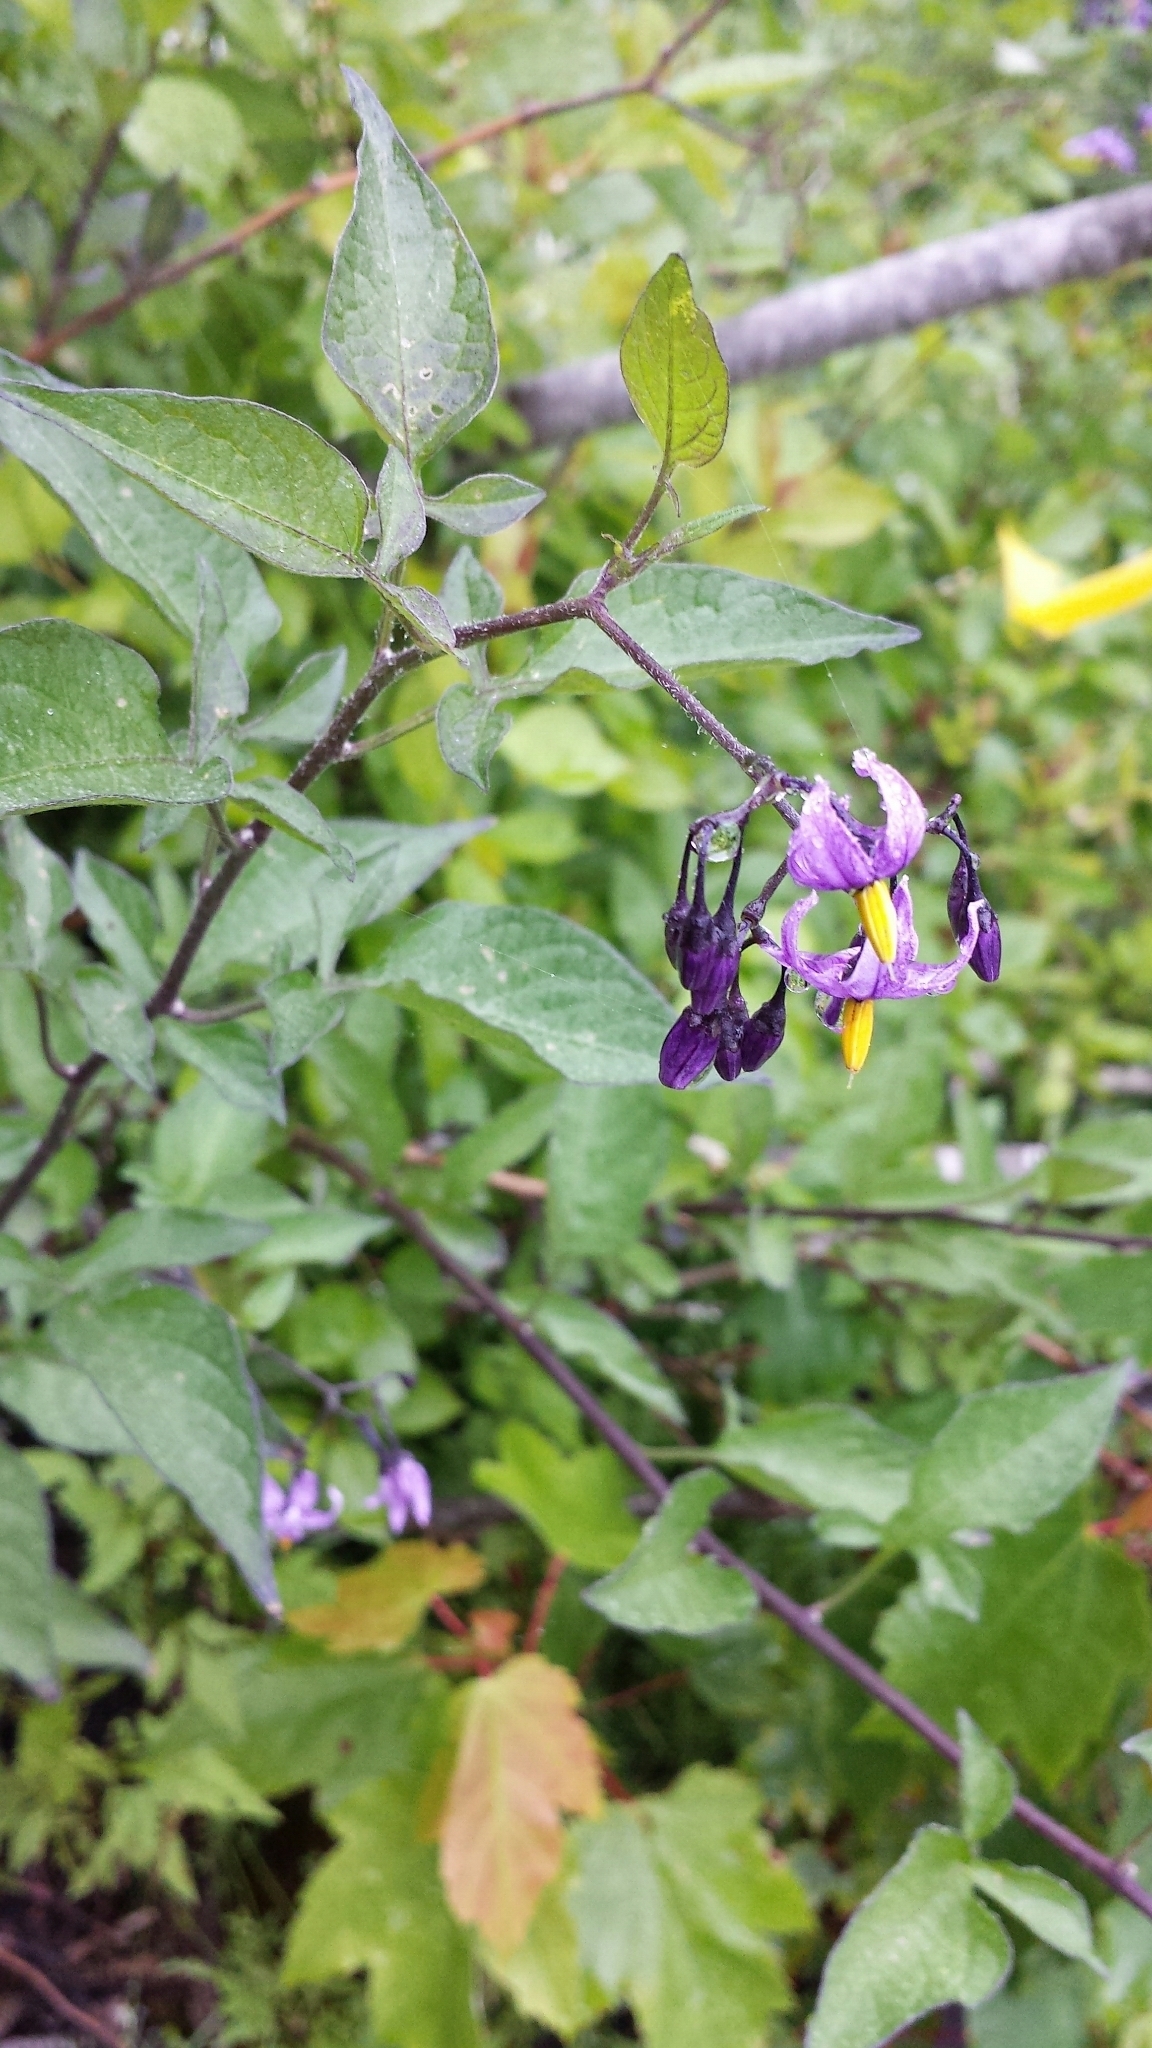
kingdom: Plantae
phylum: Tracheophyta
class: Magnoliopsida
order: Solanales
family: Solanaceae
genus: Solanum
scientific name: Solanum dulcamara
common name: Climbing nightshade
